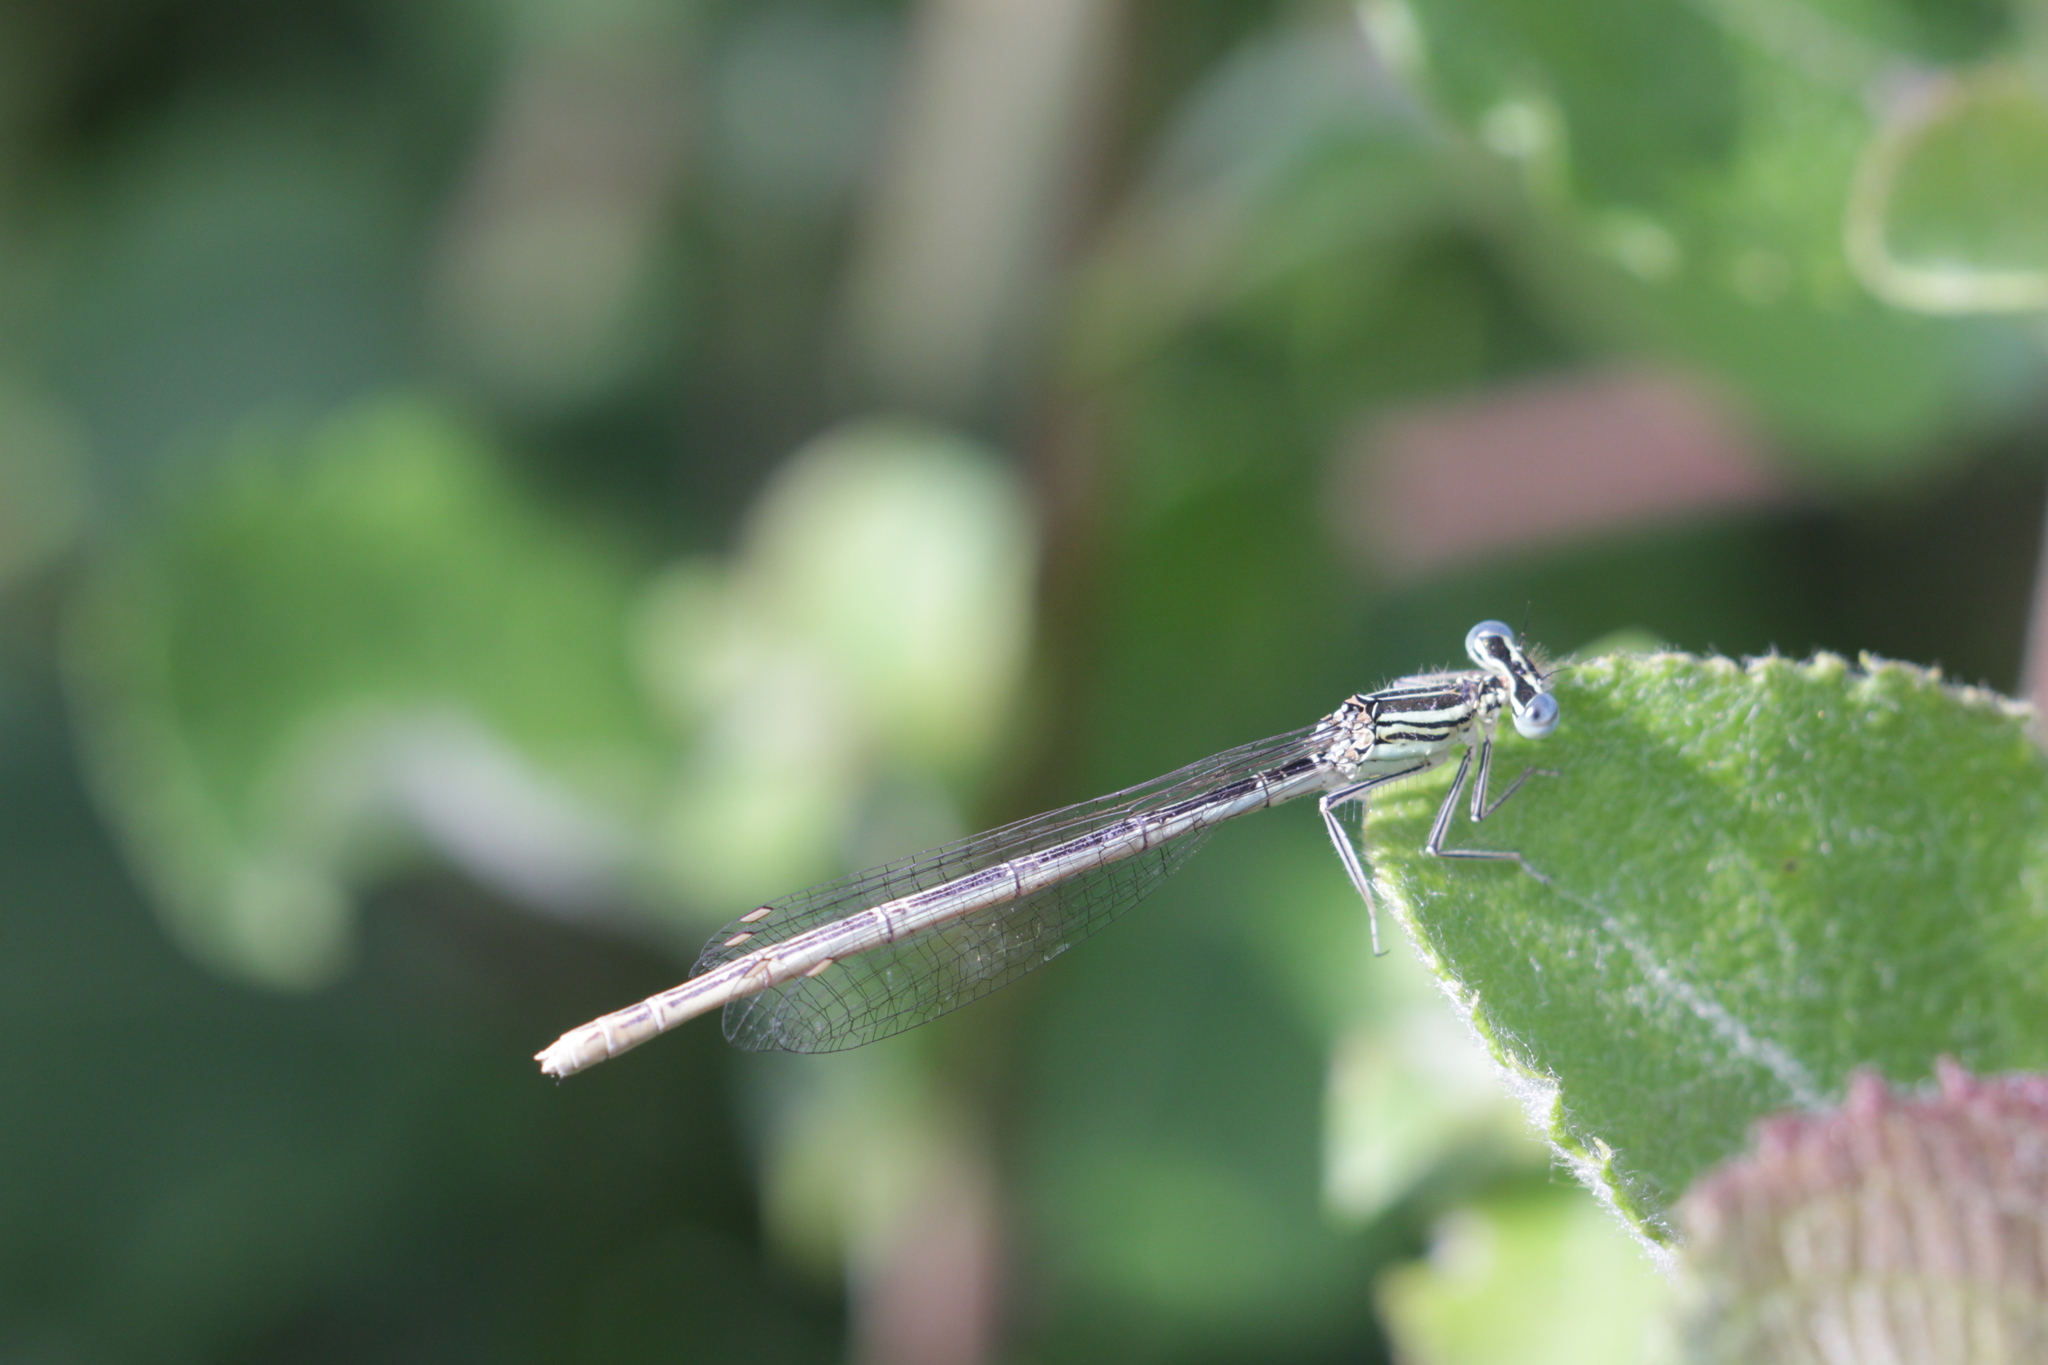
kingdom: Animalia
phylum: Arthropoda
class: Insecta
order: Odonata
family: Platycnemididae
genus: Platycnemis
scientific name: Platycnemis pennipes
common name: White-legged damselfly
